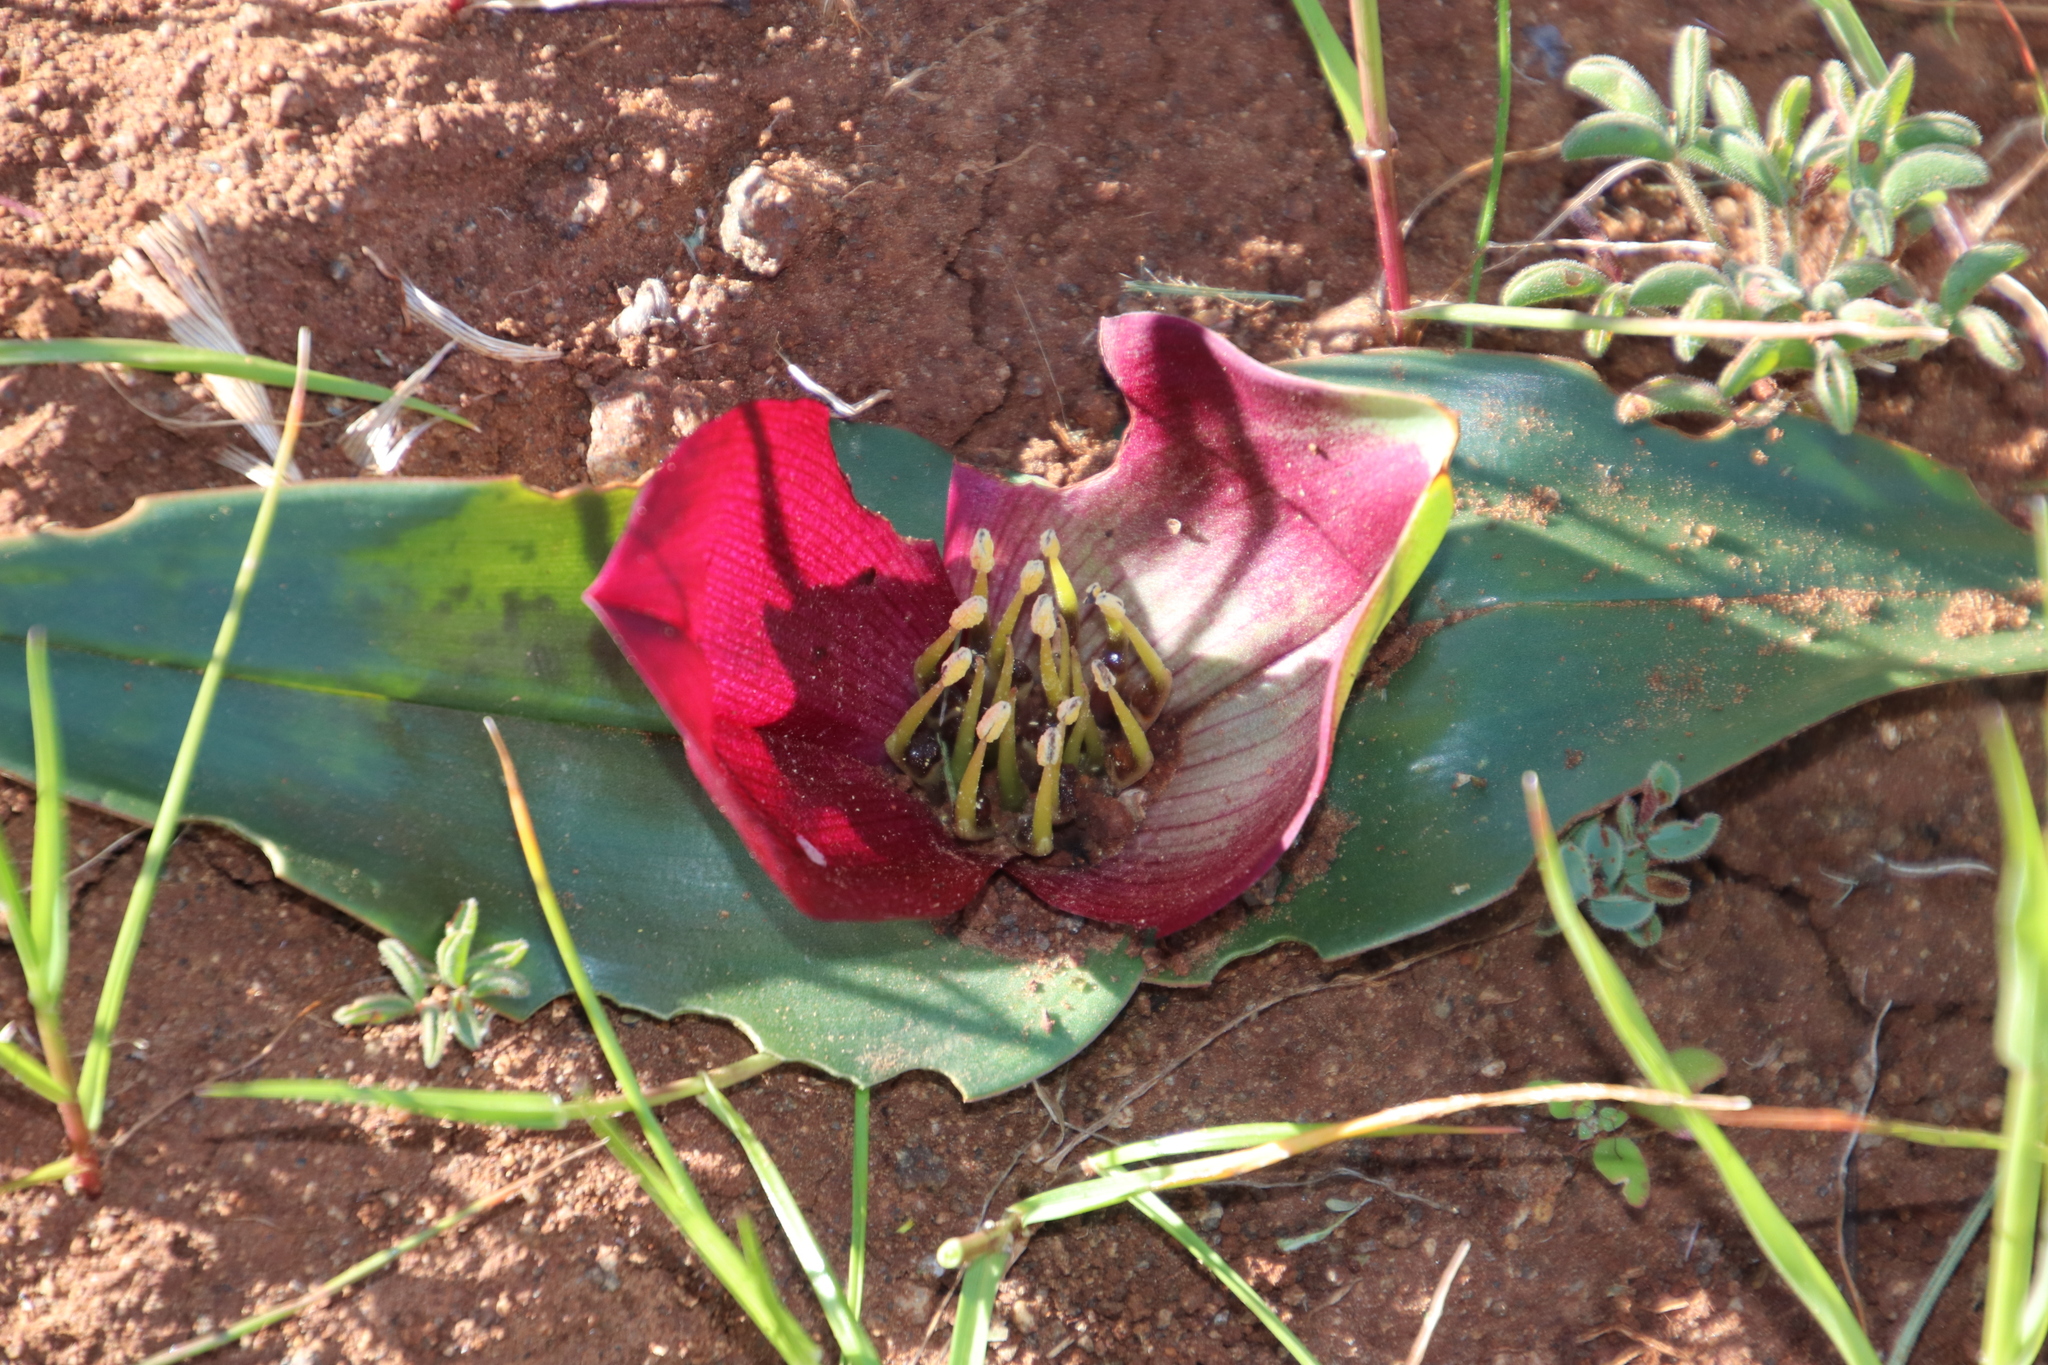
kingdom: Plantae
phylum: Tracheophyta
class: Liliopsida
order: Liliales
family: Colchicaceae
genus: Colchicum
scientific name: Colchicum burchellii
